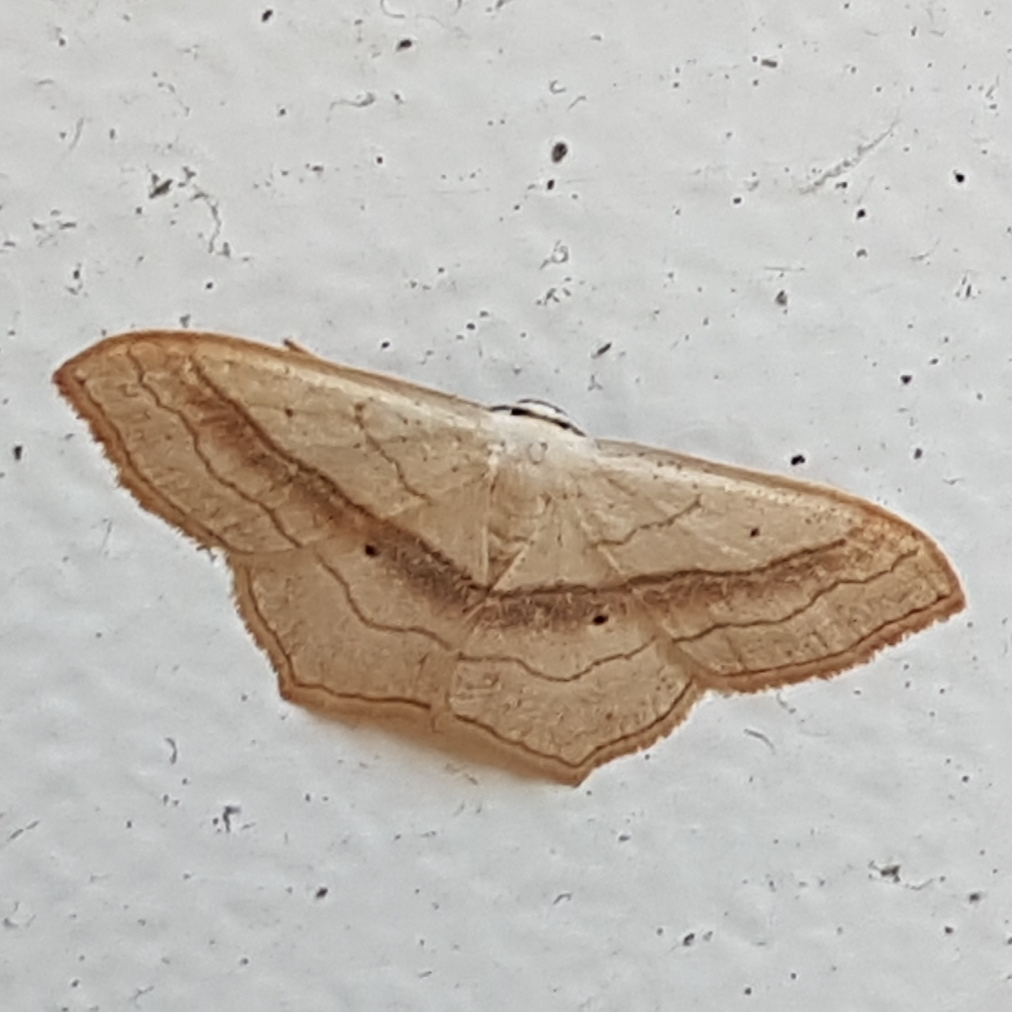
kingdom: Animalia
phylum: Arthropoda
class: Insecta
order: Lepidoptera
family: Geometridae
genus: Scopula
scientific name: Scopula imitaria
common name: Small blood-vein
